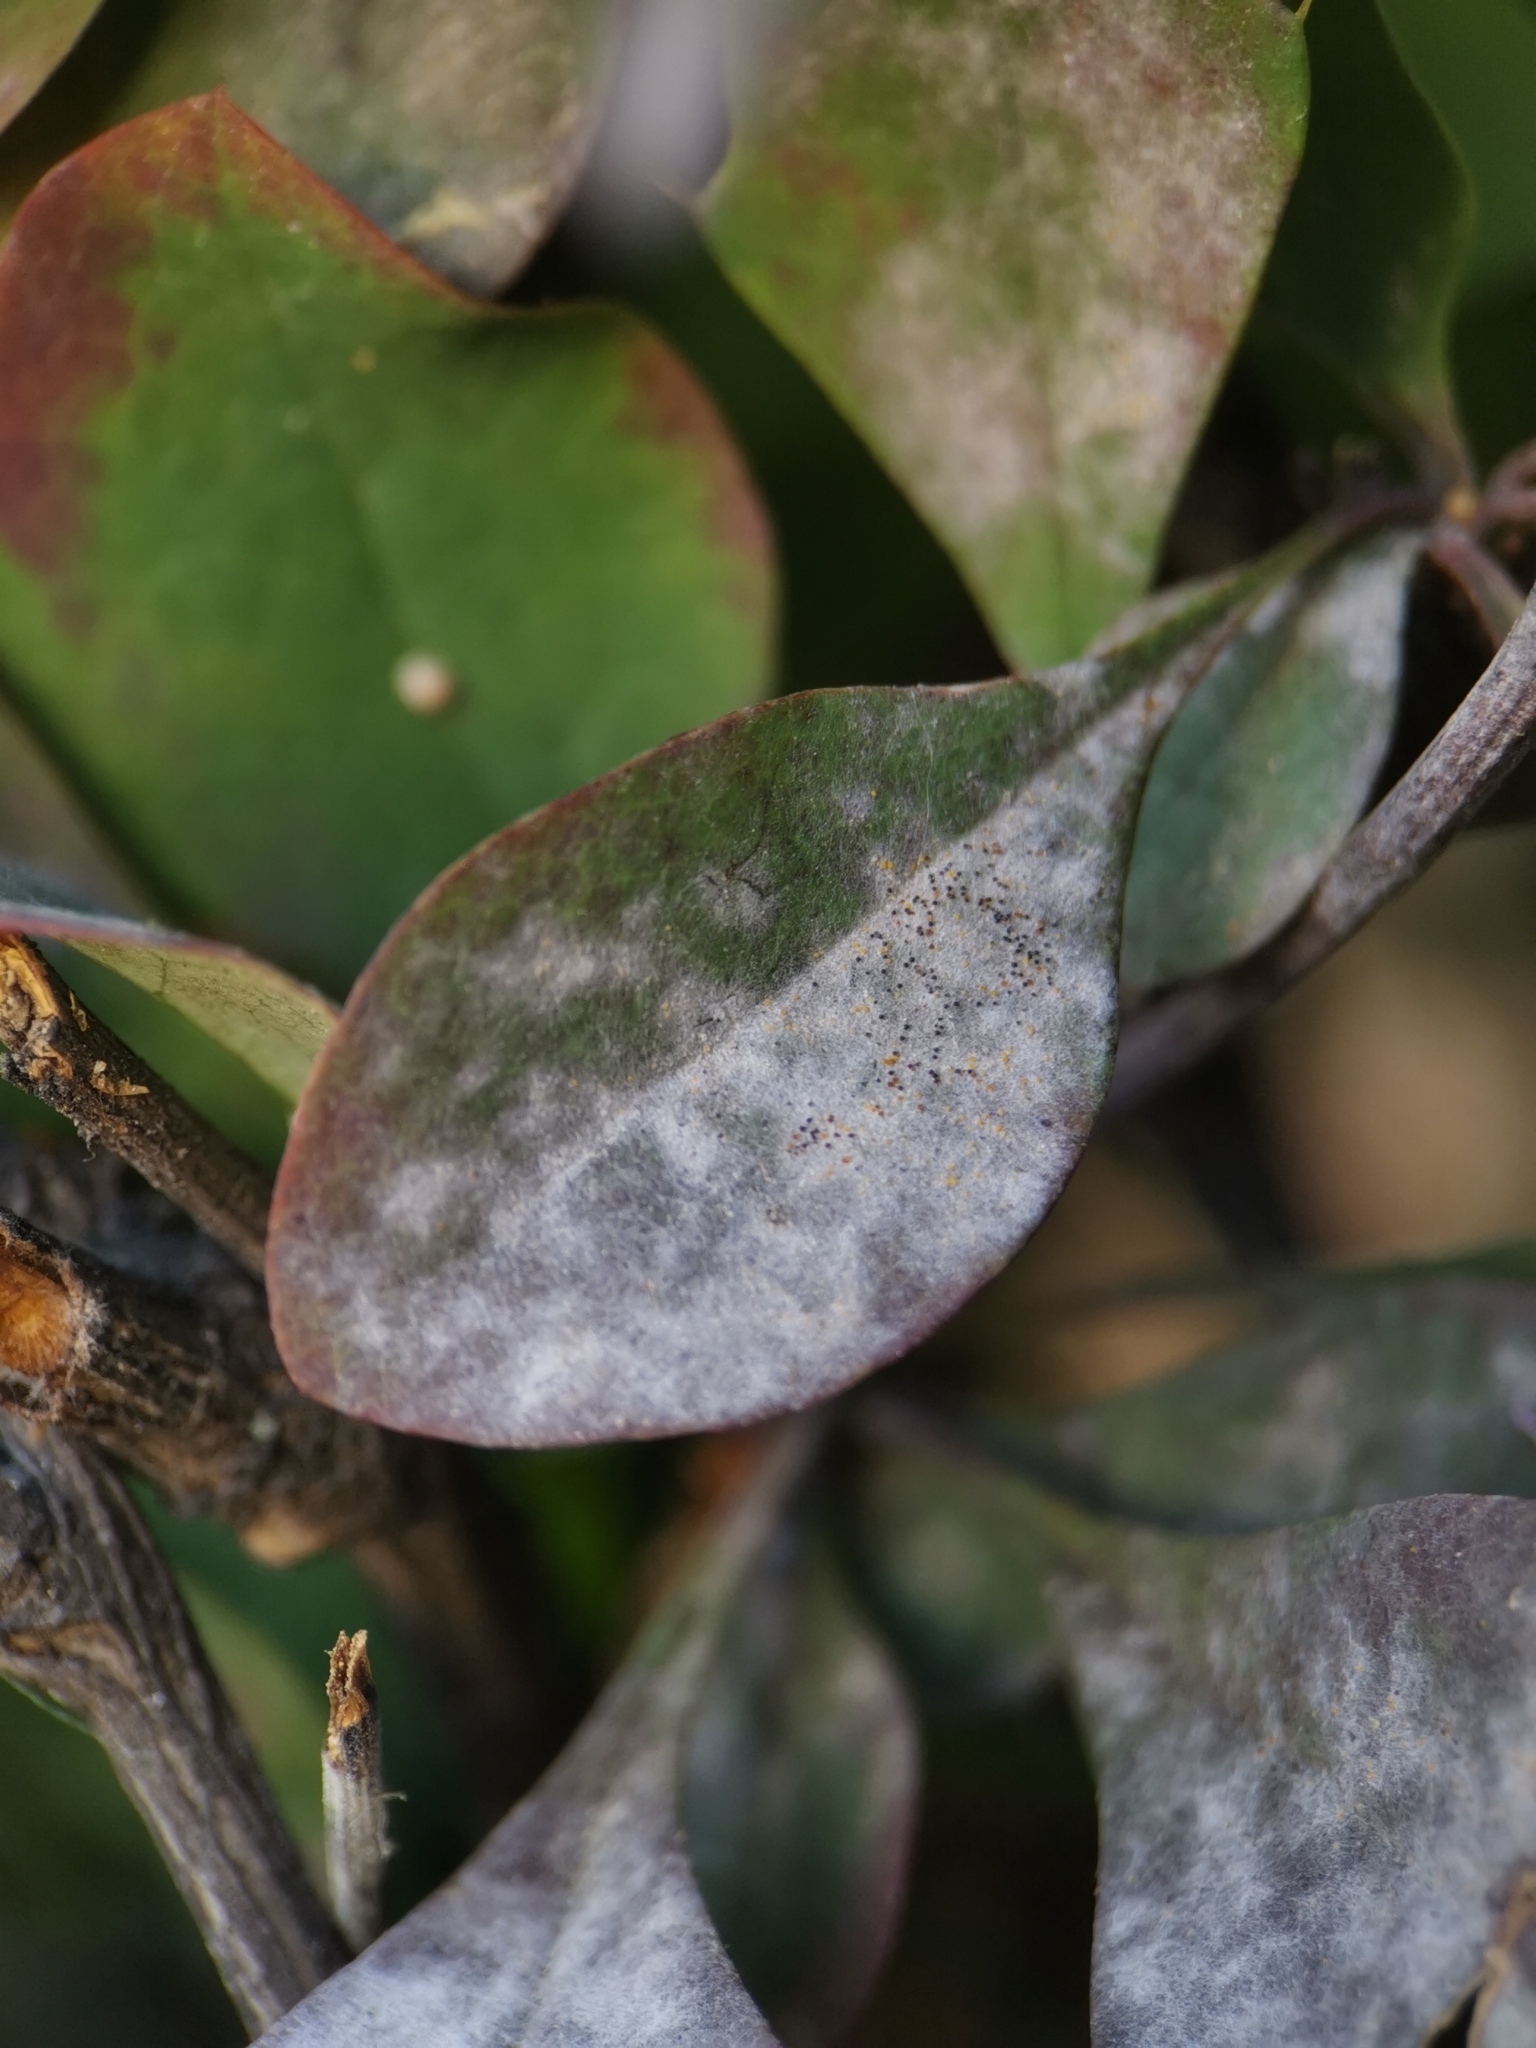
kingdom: Fungi
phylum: Ascomycota
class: Leotiomycetes
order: Helotiales
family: Erysiphaceae
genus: Erysiphe
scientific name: Erysiphe berberidis
